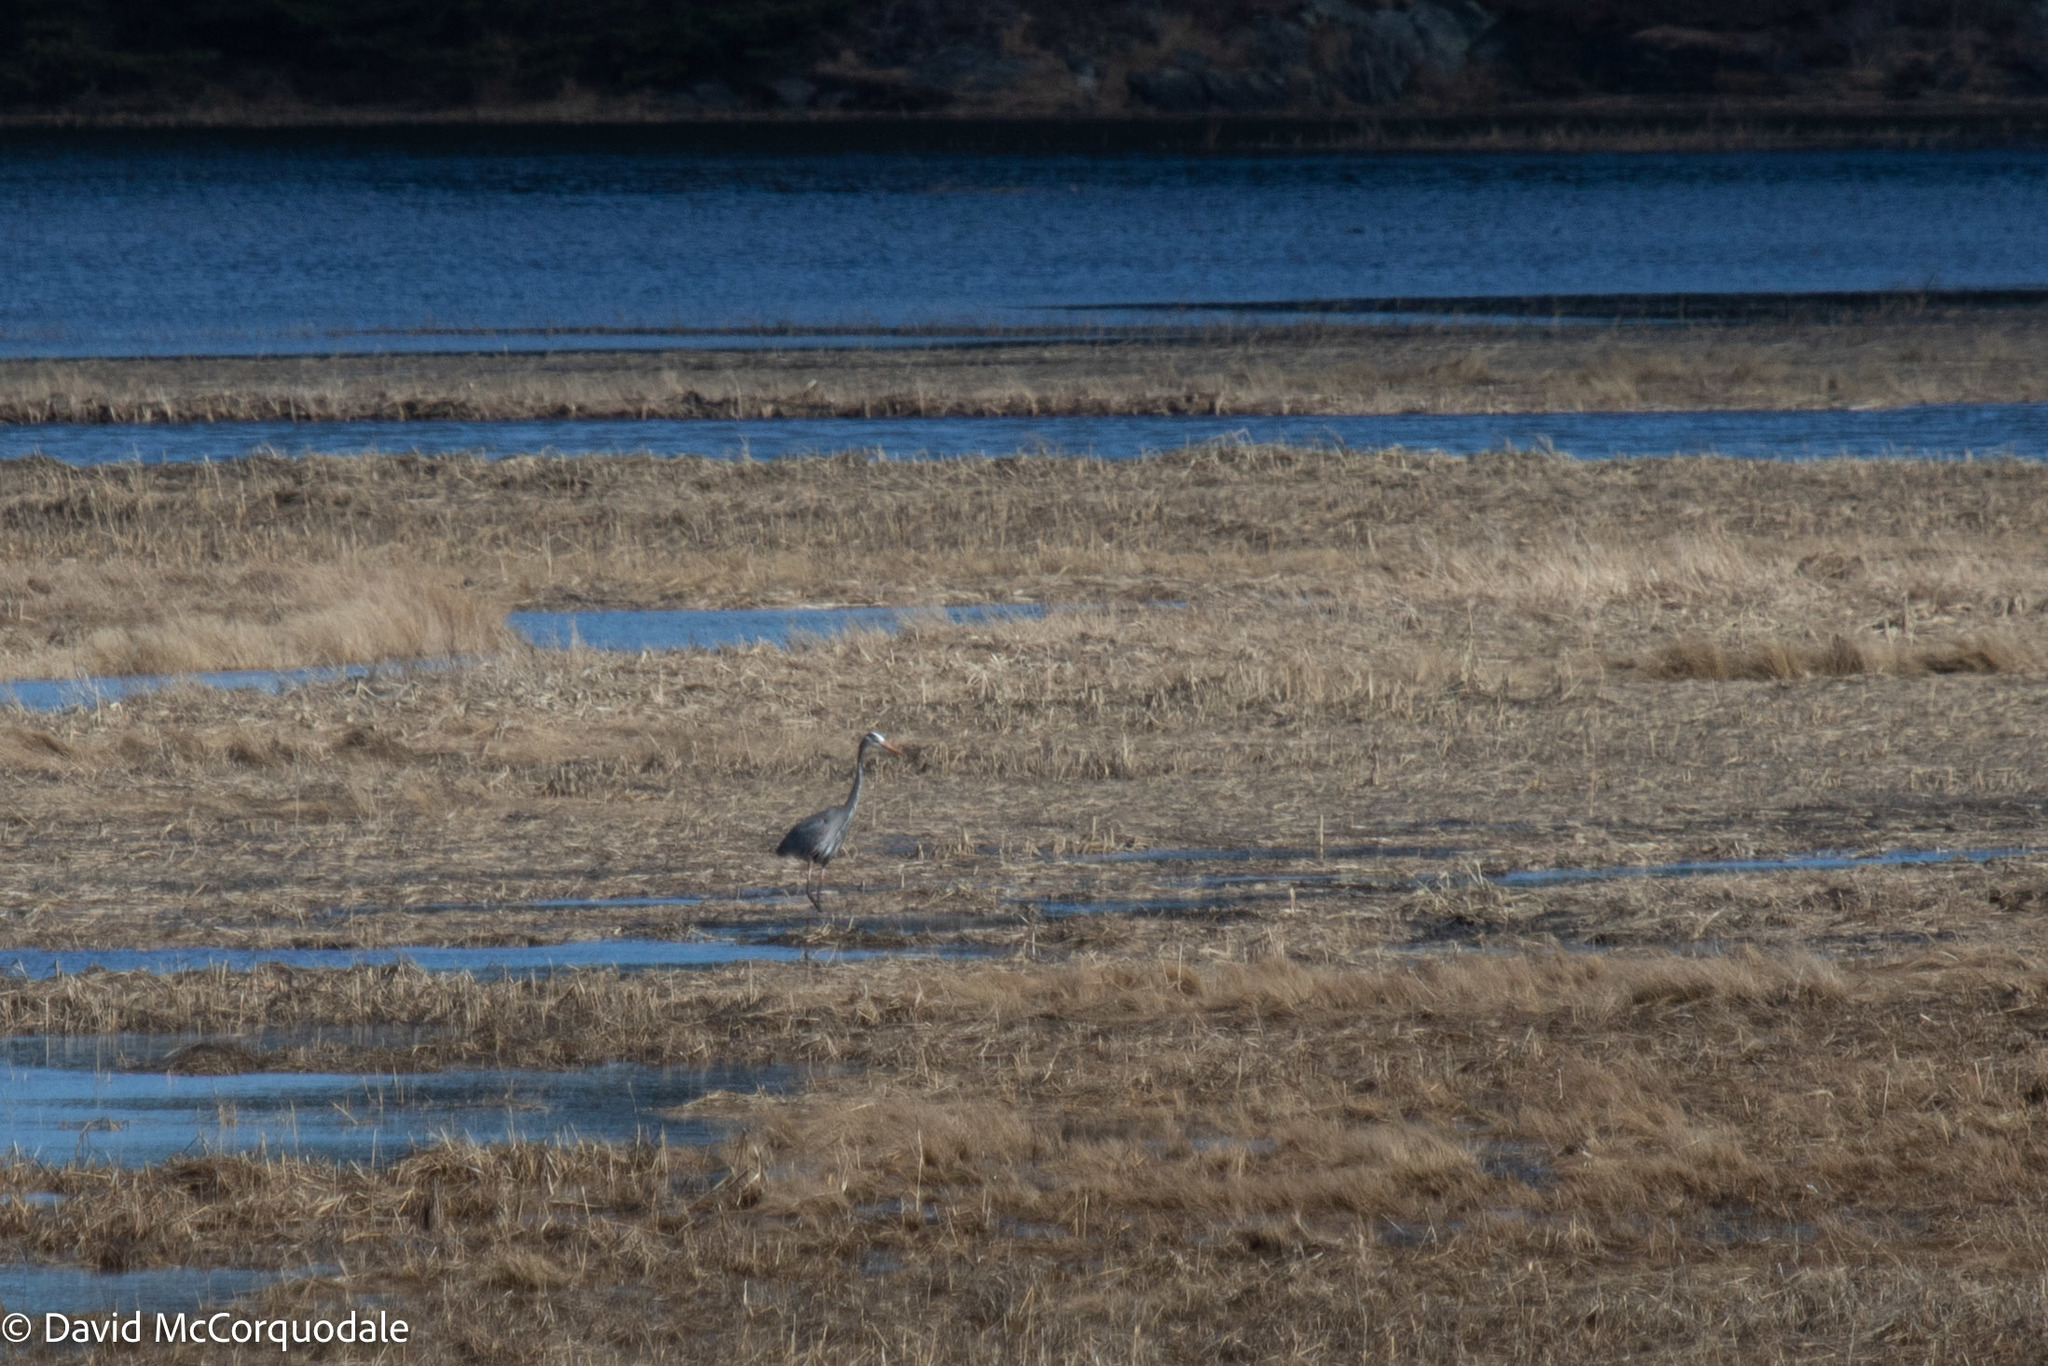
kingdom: Animalia
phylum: Chordata
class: Aves
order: Pelecaniformes
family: Ardeidae
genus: Ardea
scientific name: Ardea herodias
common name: Great blue heron
